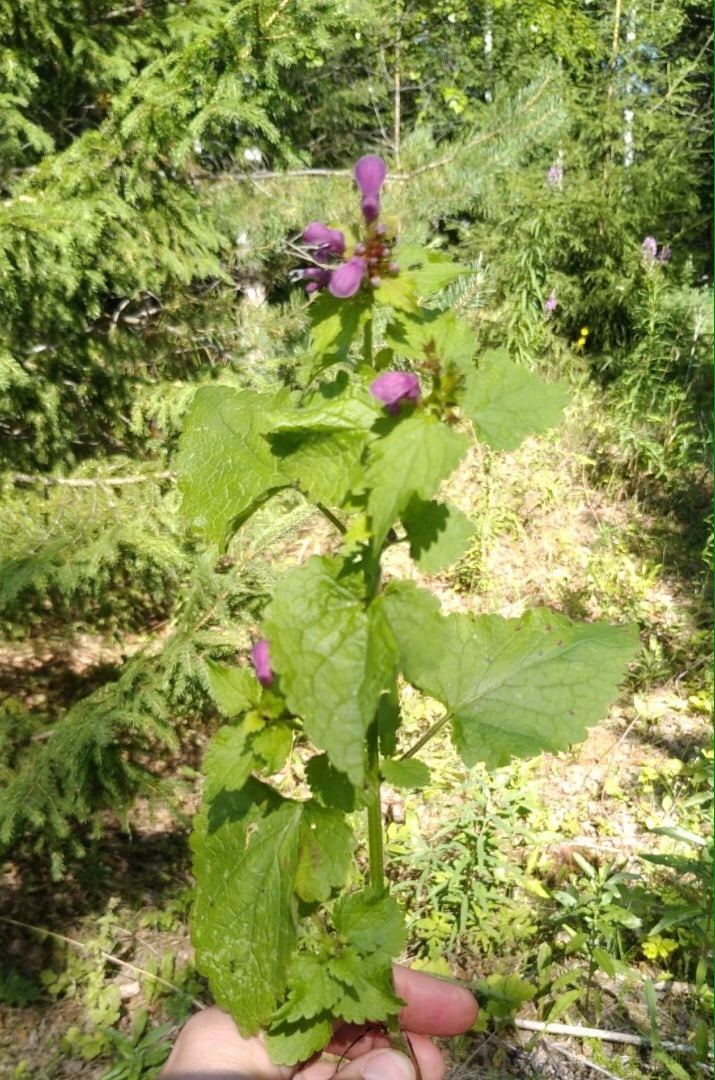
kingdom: Plantae
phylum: Tracheophyta
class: Magnoliopsida
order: Lamiales
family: Lamiaceae
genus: Lamium
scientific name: Lamium maculatum
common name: Spotted dead-nettle
